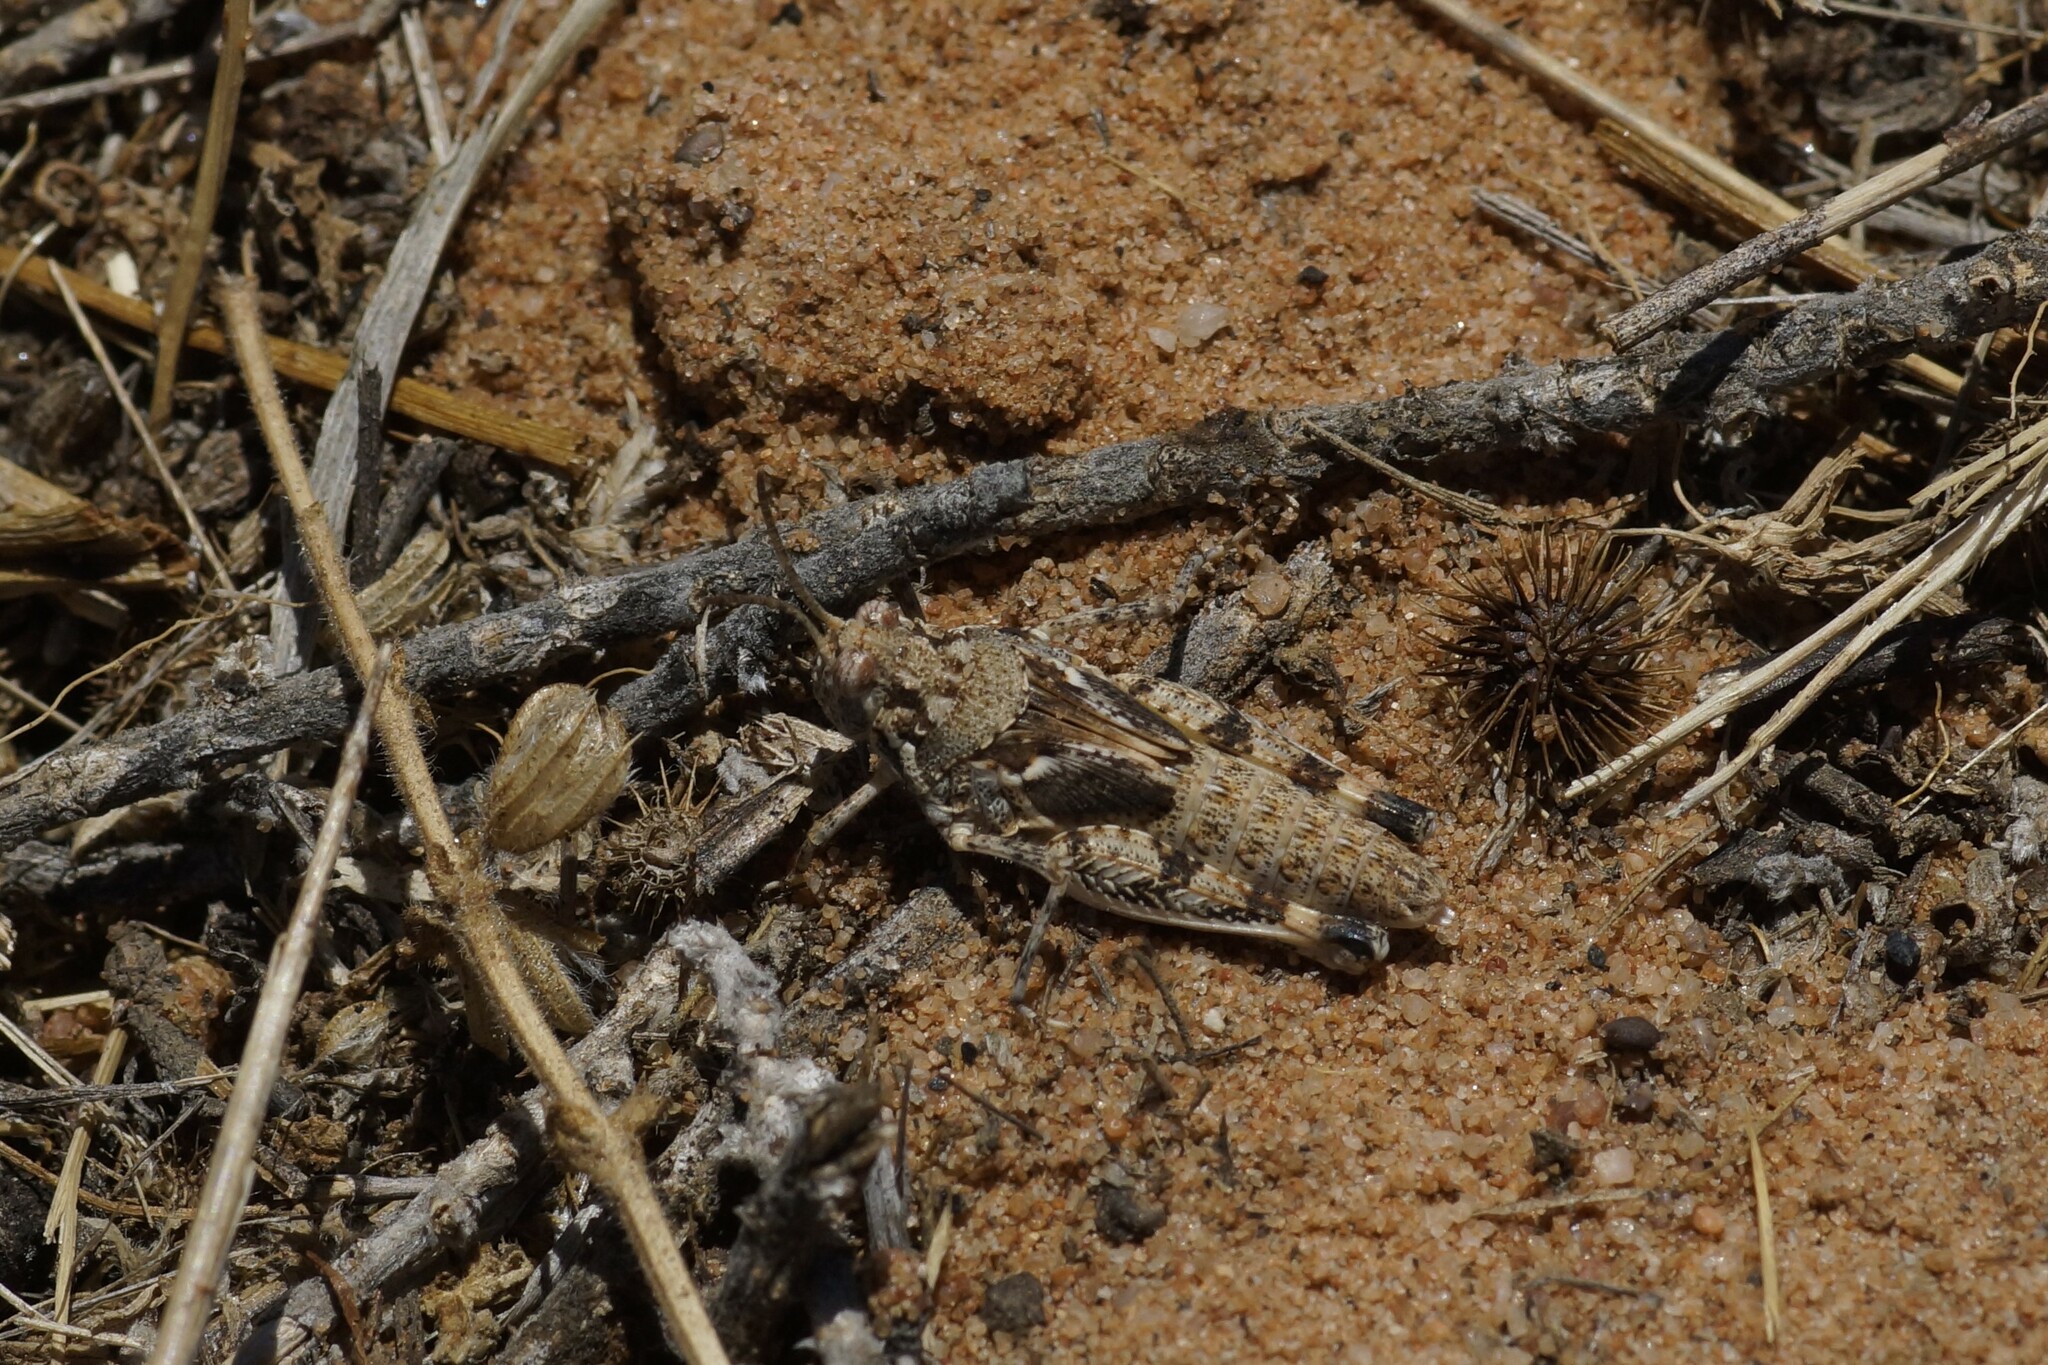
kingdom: Animalia
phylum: Arthropoda
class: Insecta
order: Orthoptera
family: Acrididae
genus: Urnisa
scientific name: Urnisa guttulosa
